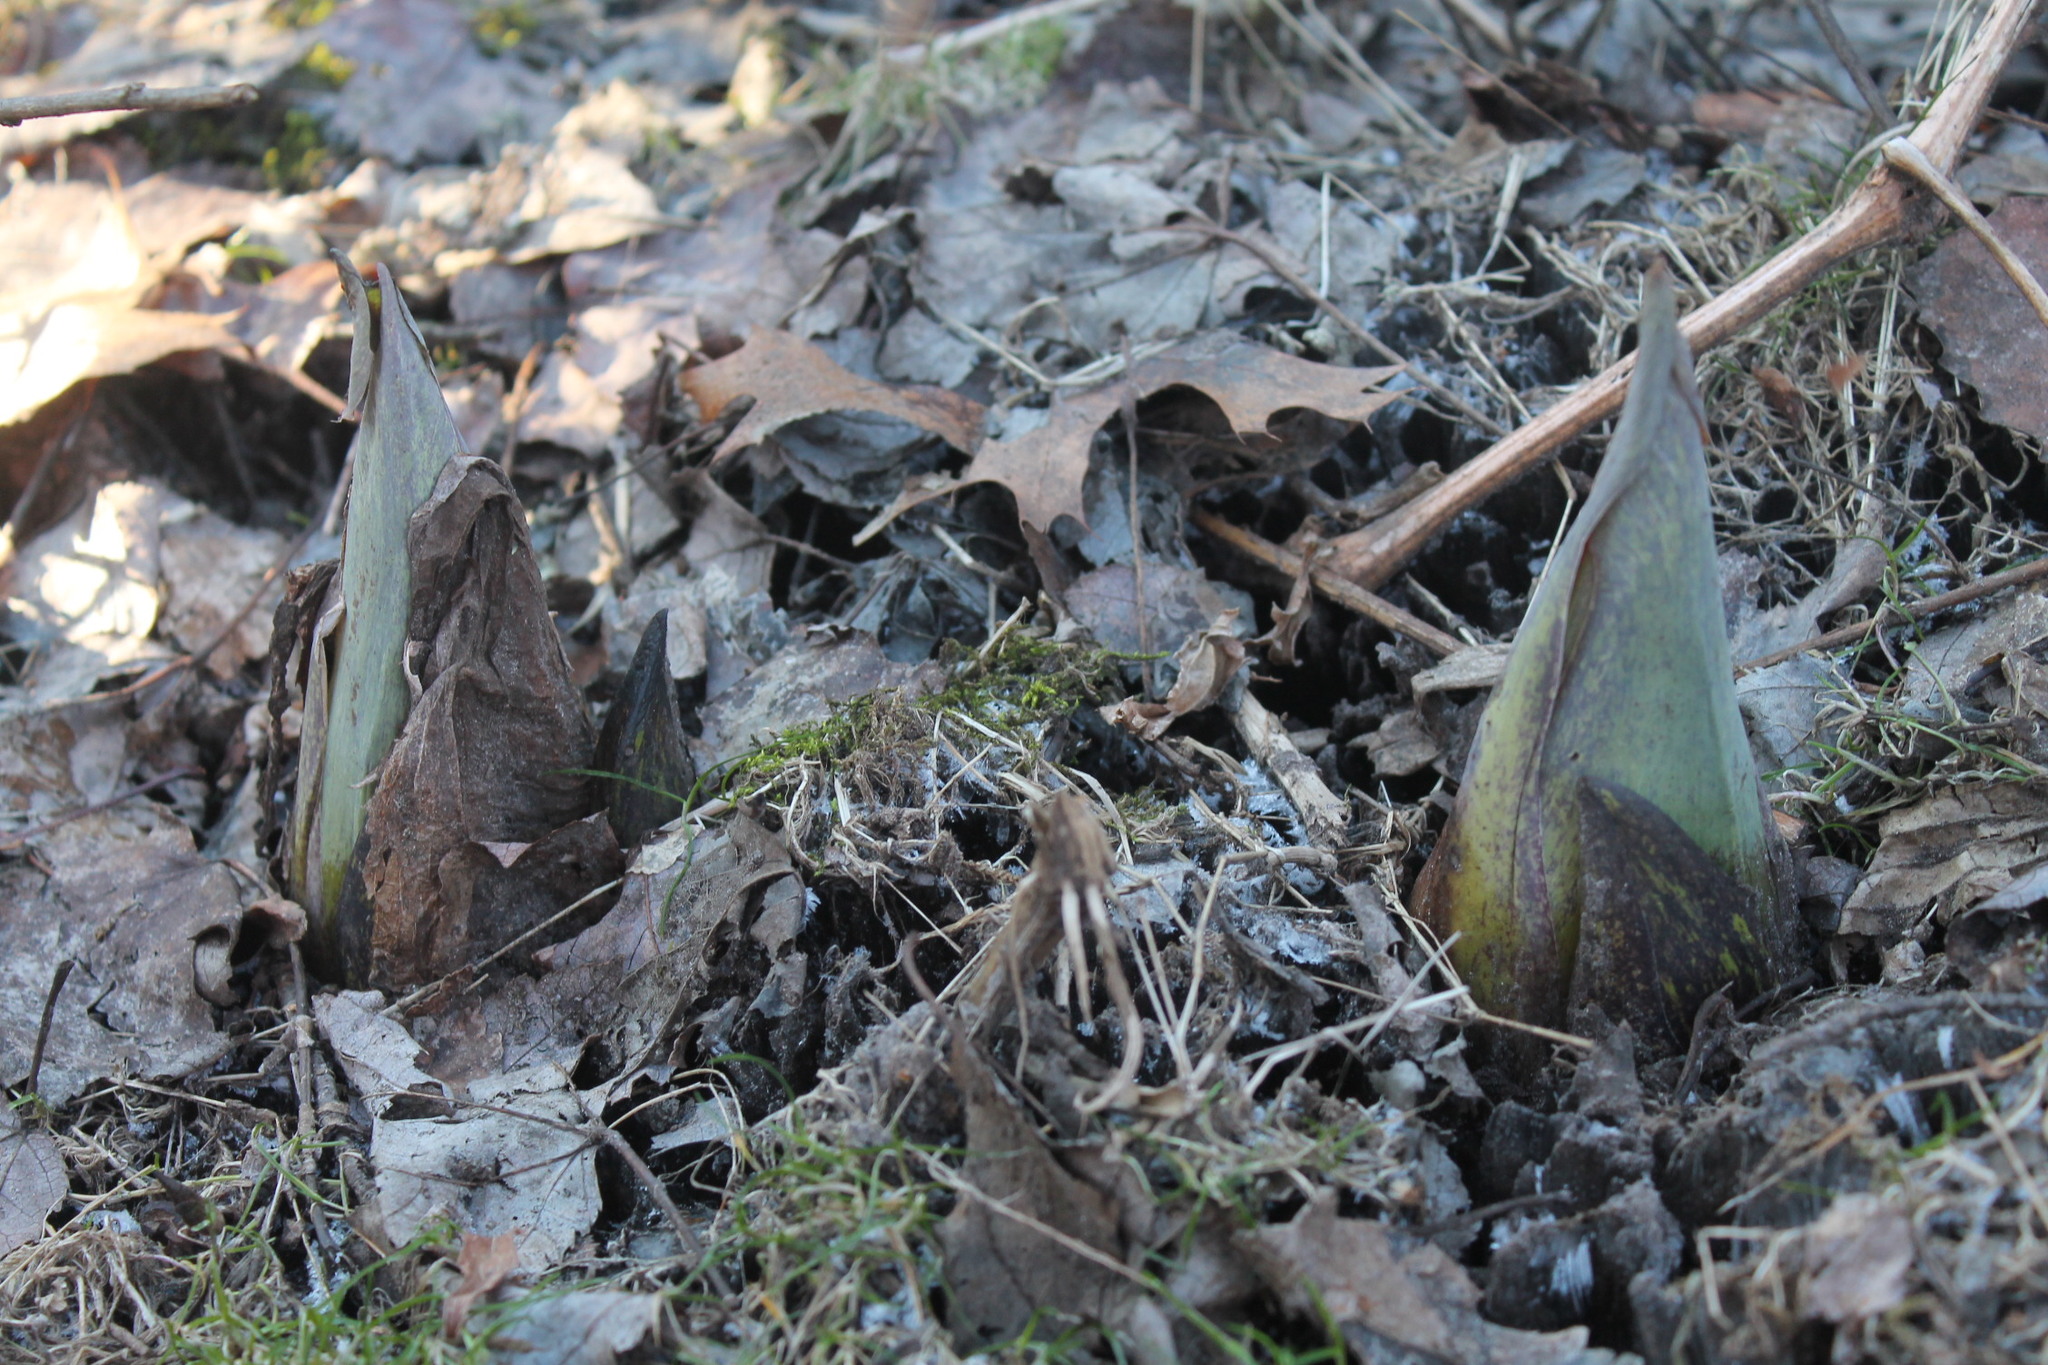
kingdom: Plantae
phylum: Tracheophyta
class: Liliopsida
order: Alismatales
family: Araceae
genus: Symplocarpus
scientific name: Symplocarpus foetidus
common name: Eastern skunk cabbage
